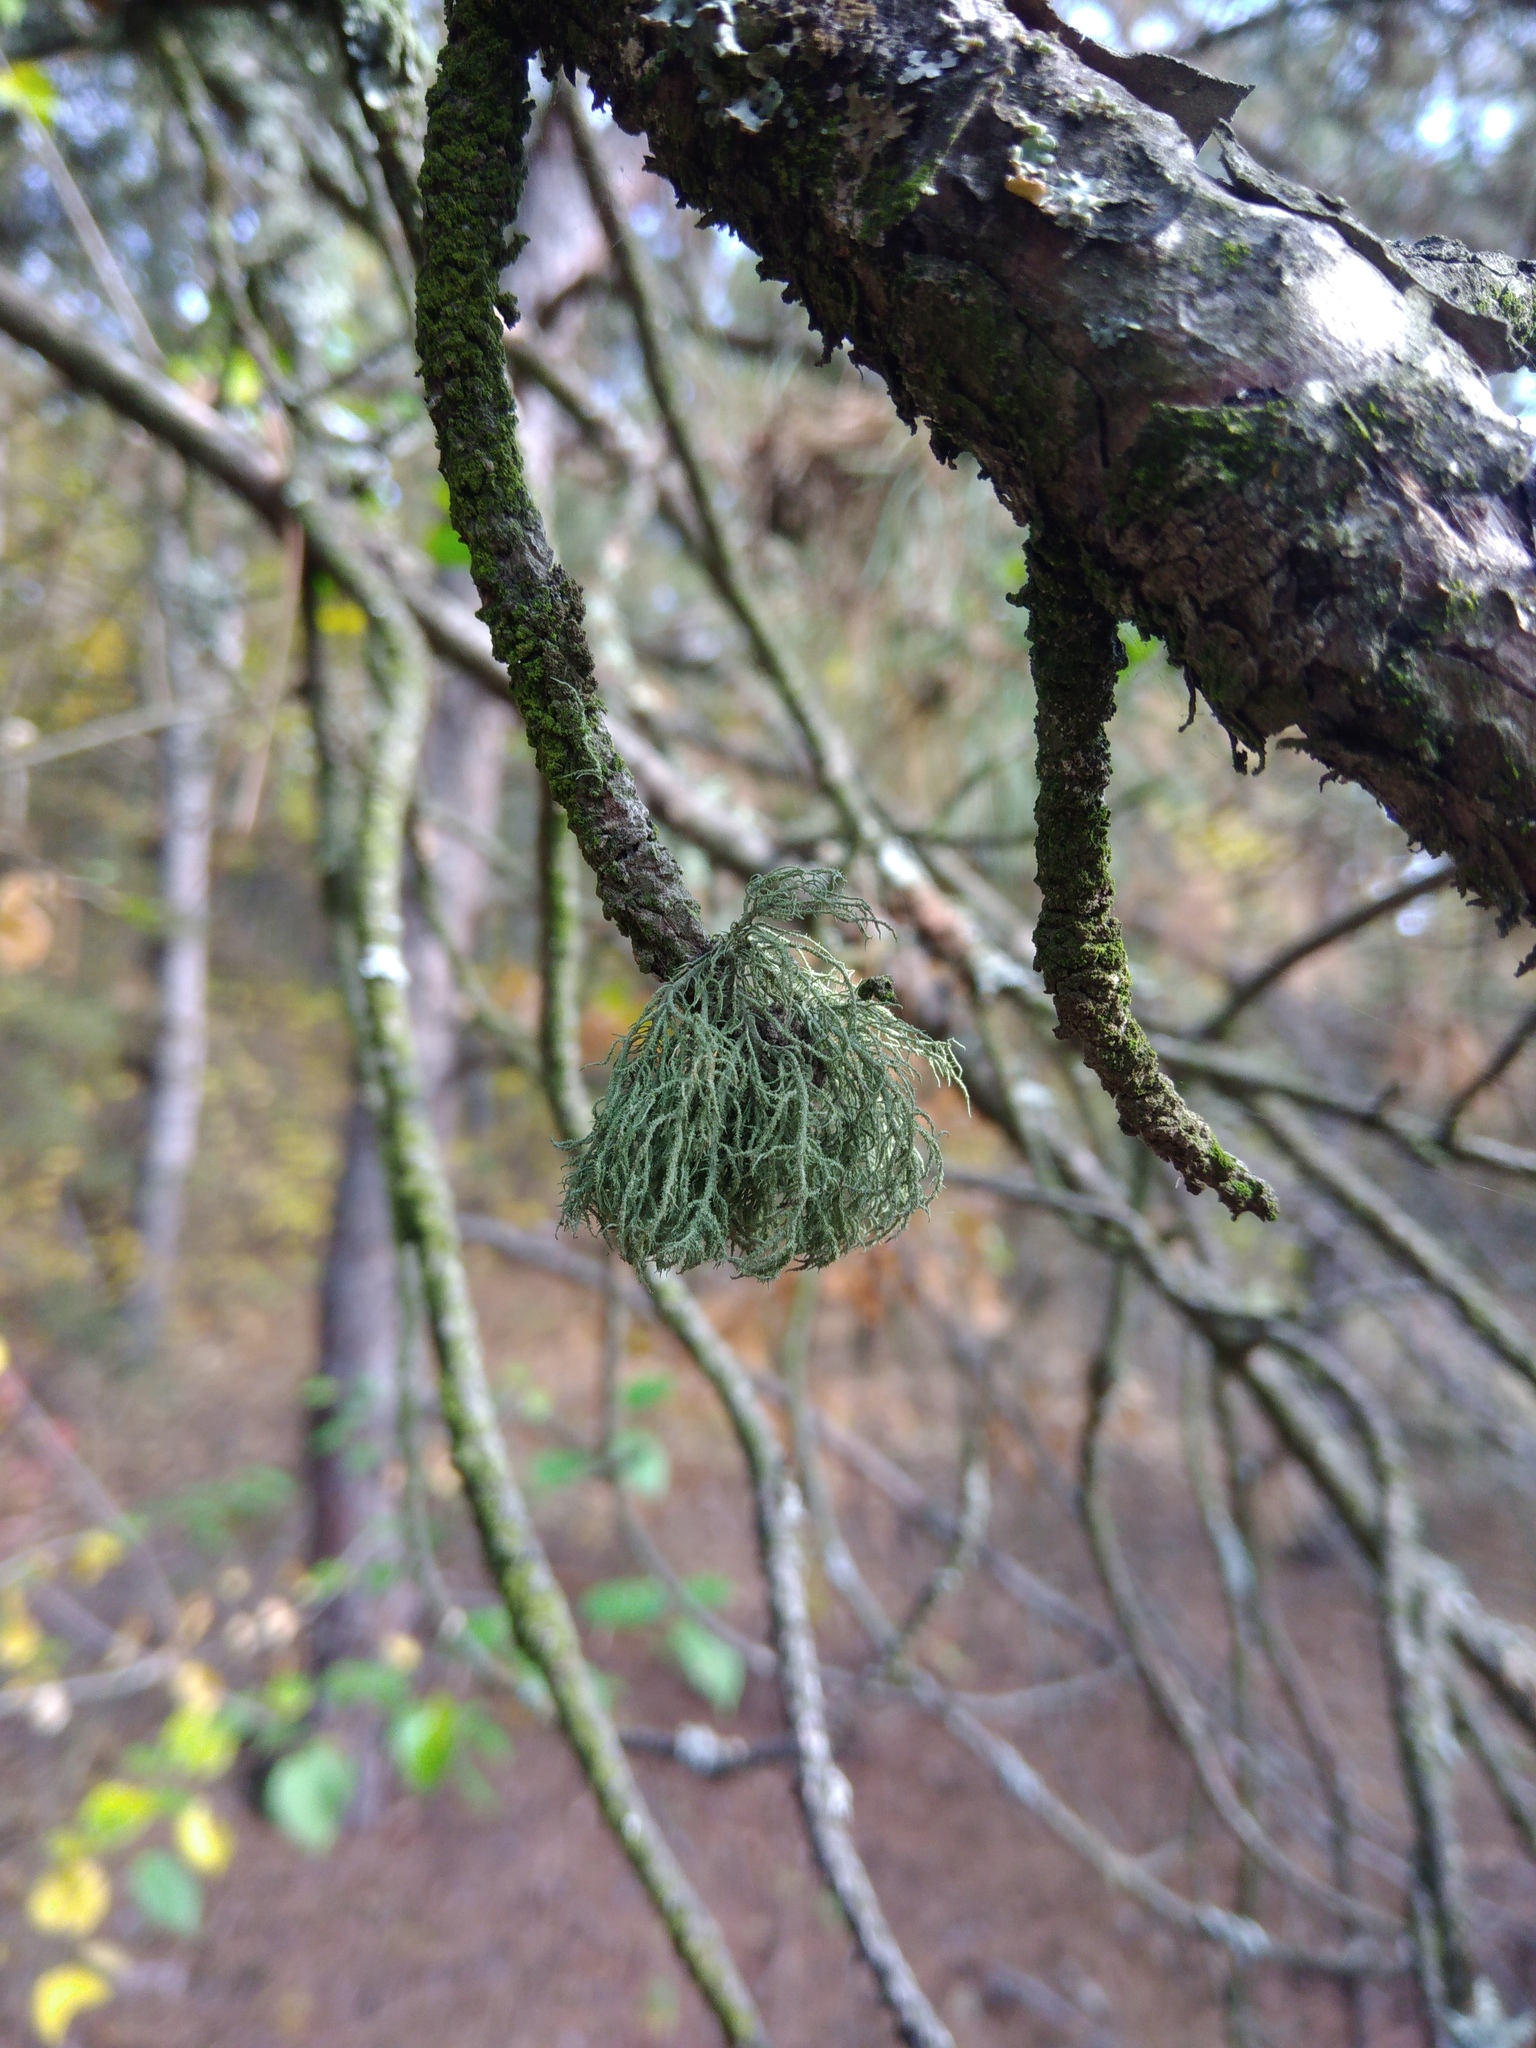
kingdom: Fungi
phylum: Ascomycota
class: Lecanoromycetes
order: Lecanorales
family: Parmeliaceae
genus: Usnea
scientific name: Usnea hirta
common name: Bristly beard lichen
